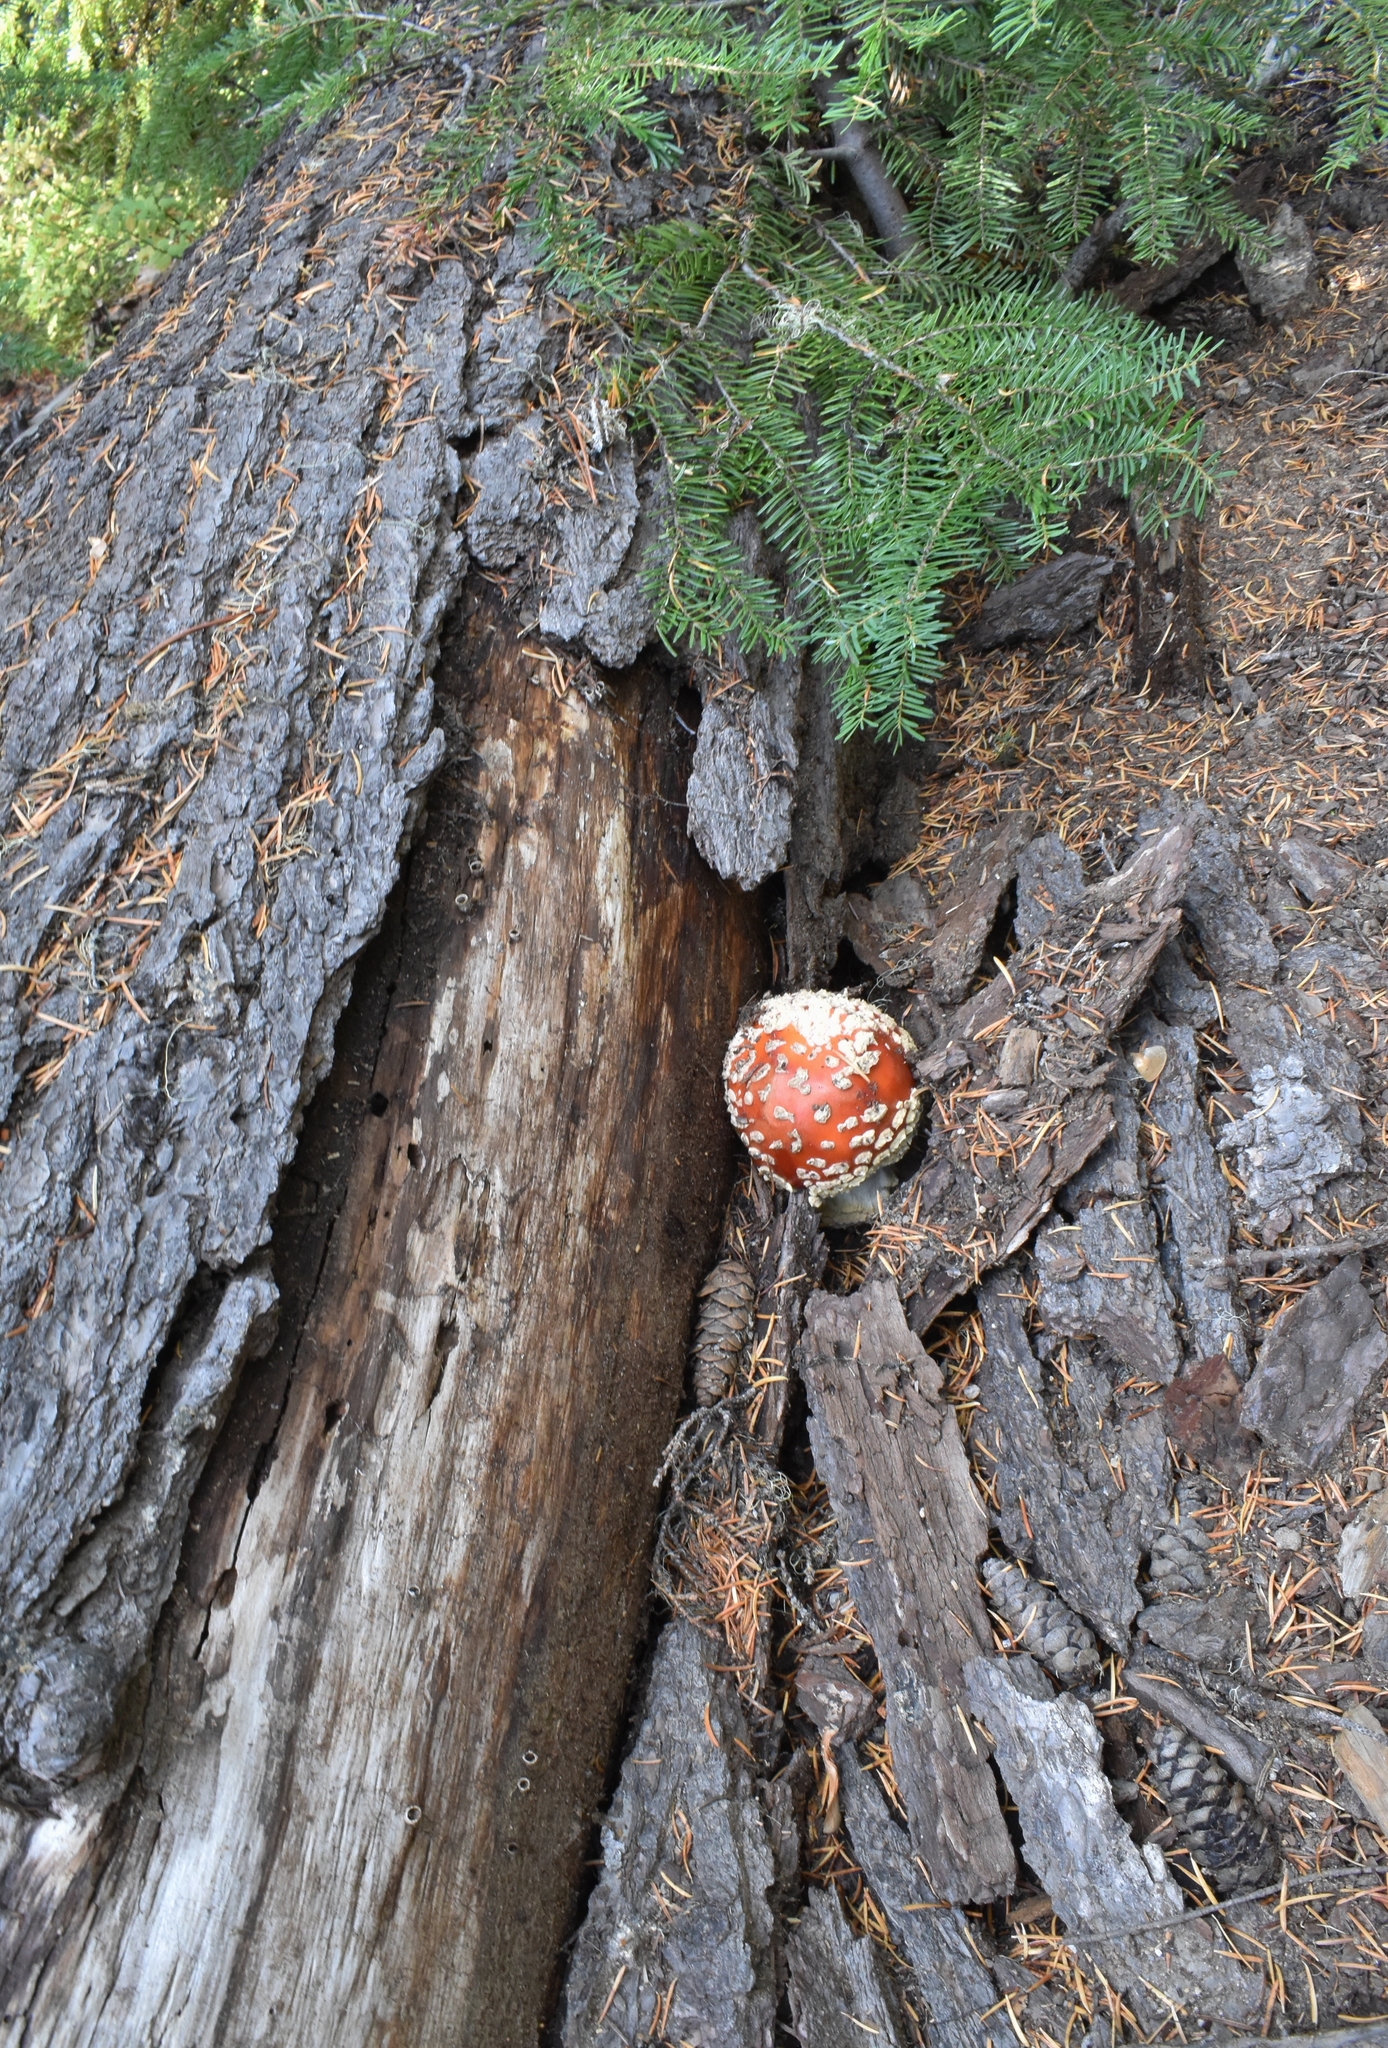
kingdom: Fungi
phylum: Basidiomycota
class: Agaricomycetes
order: Agaricales
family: Amanitaceae
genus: Amanita
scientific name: Amanita muscaria
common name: Fly agaric
